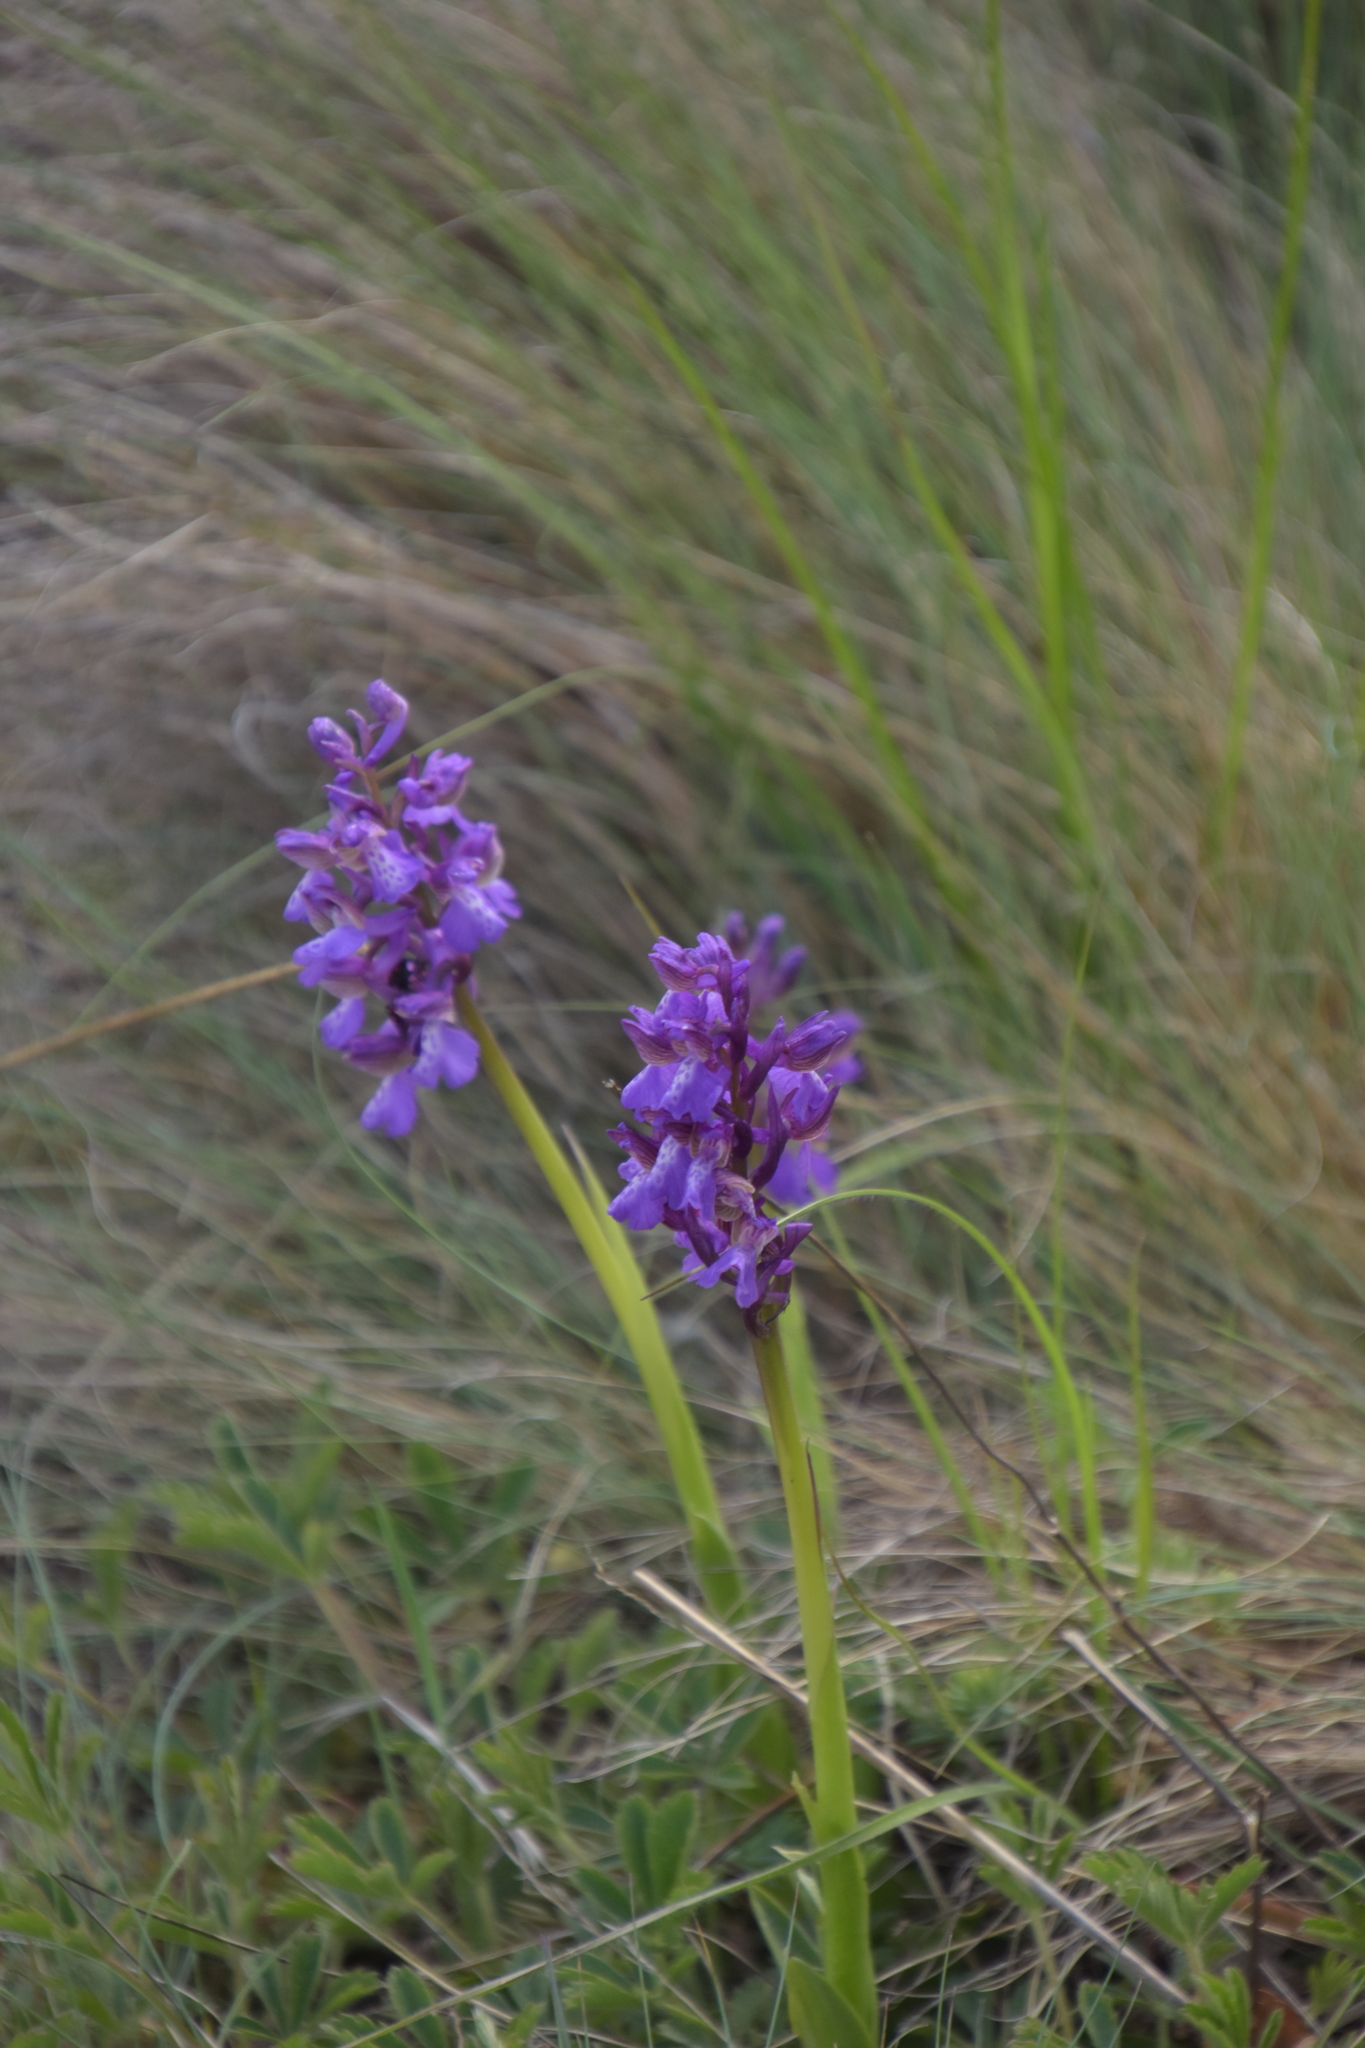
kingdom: Plantae
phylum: Tracheophyta
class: Liliopsida
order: Asparagales
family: Orchidaceae
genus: Anacamptis
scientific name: Anacamptis morio
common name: Green-winged orchid
